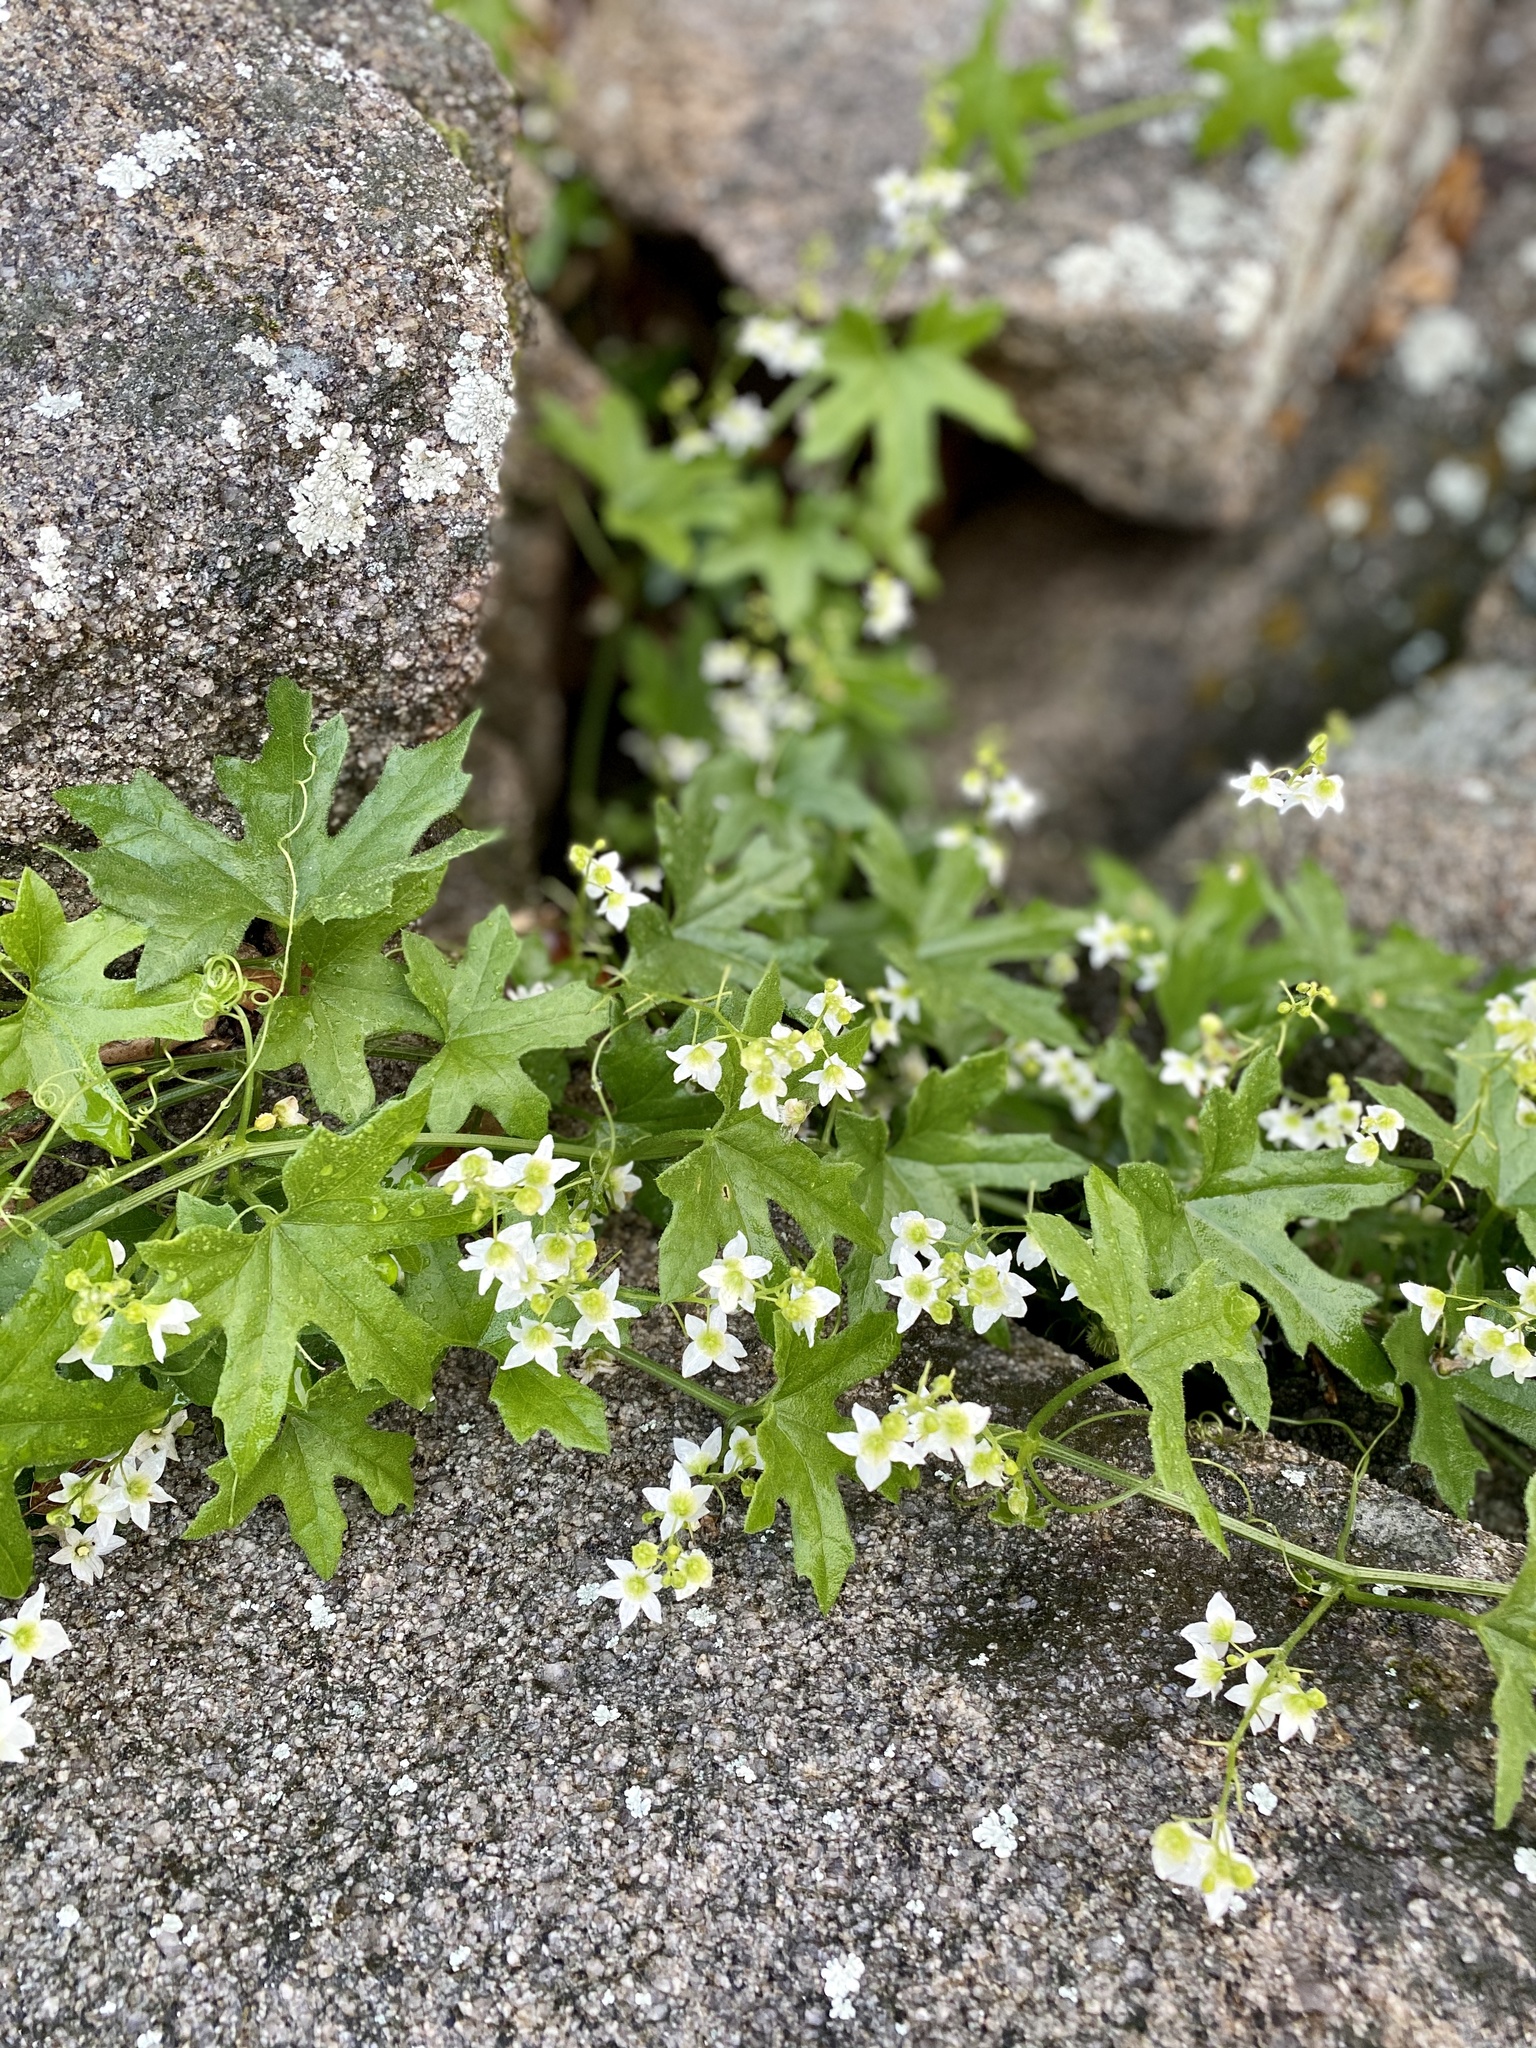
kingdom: Plantae
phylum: Tracheophyta
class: Magnoliopsida
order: Cucurbitales
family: Cucurbitaceae
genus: Marah
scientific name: Marah macrocarpa
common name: Cucamonga manroot
